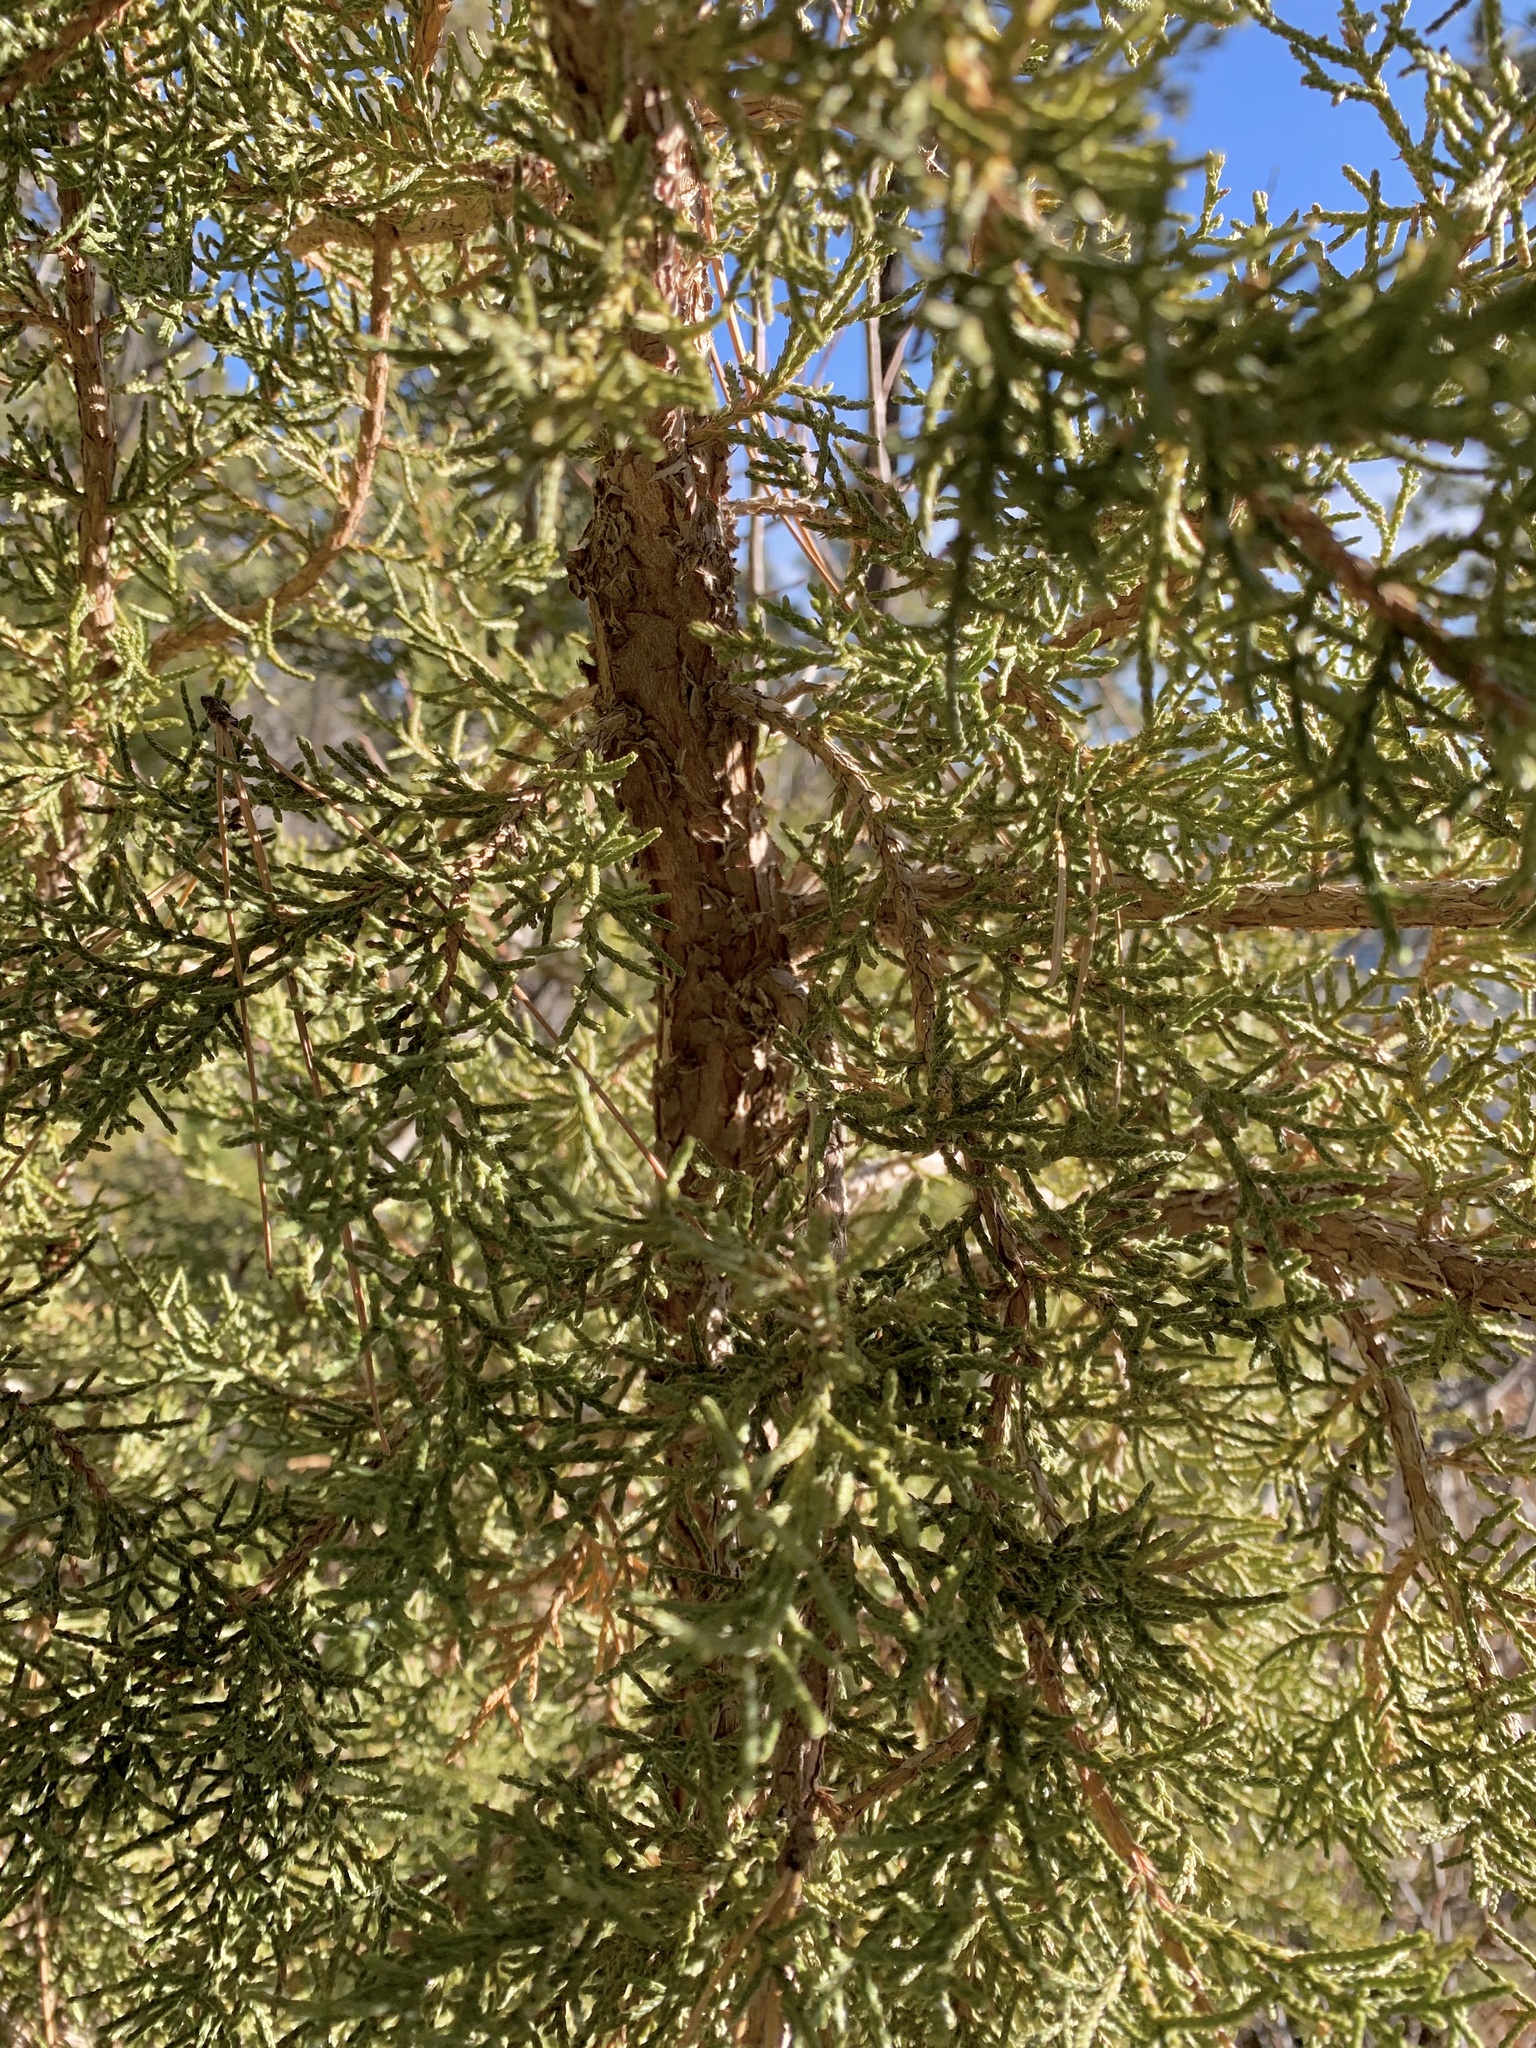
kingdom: Plantae
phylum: Tracheophyta
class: Pinopsida
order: Pinales
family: Cupressaceae
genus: Juniperus
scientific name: Juniperus monosperma
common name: One-seed juniper
